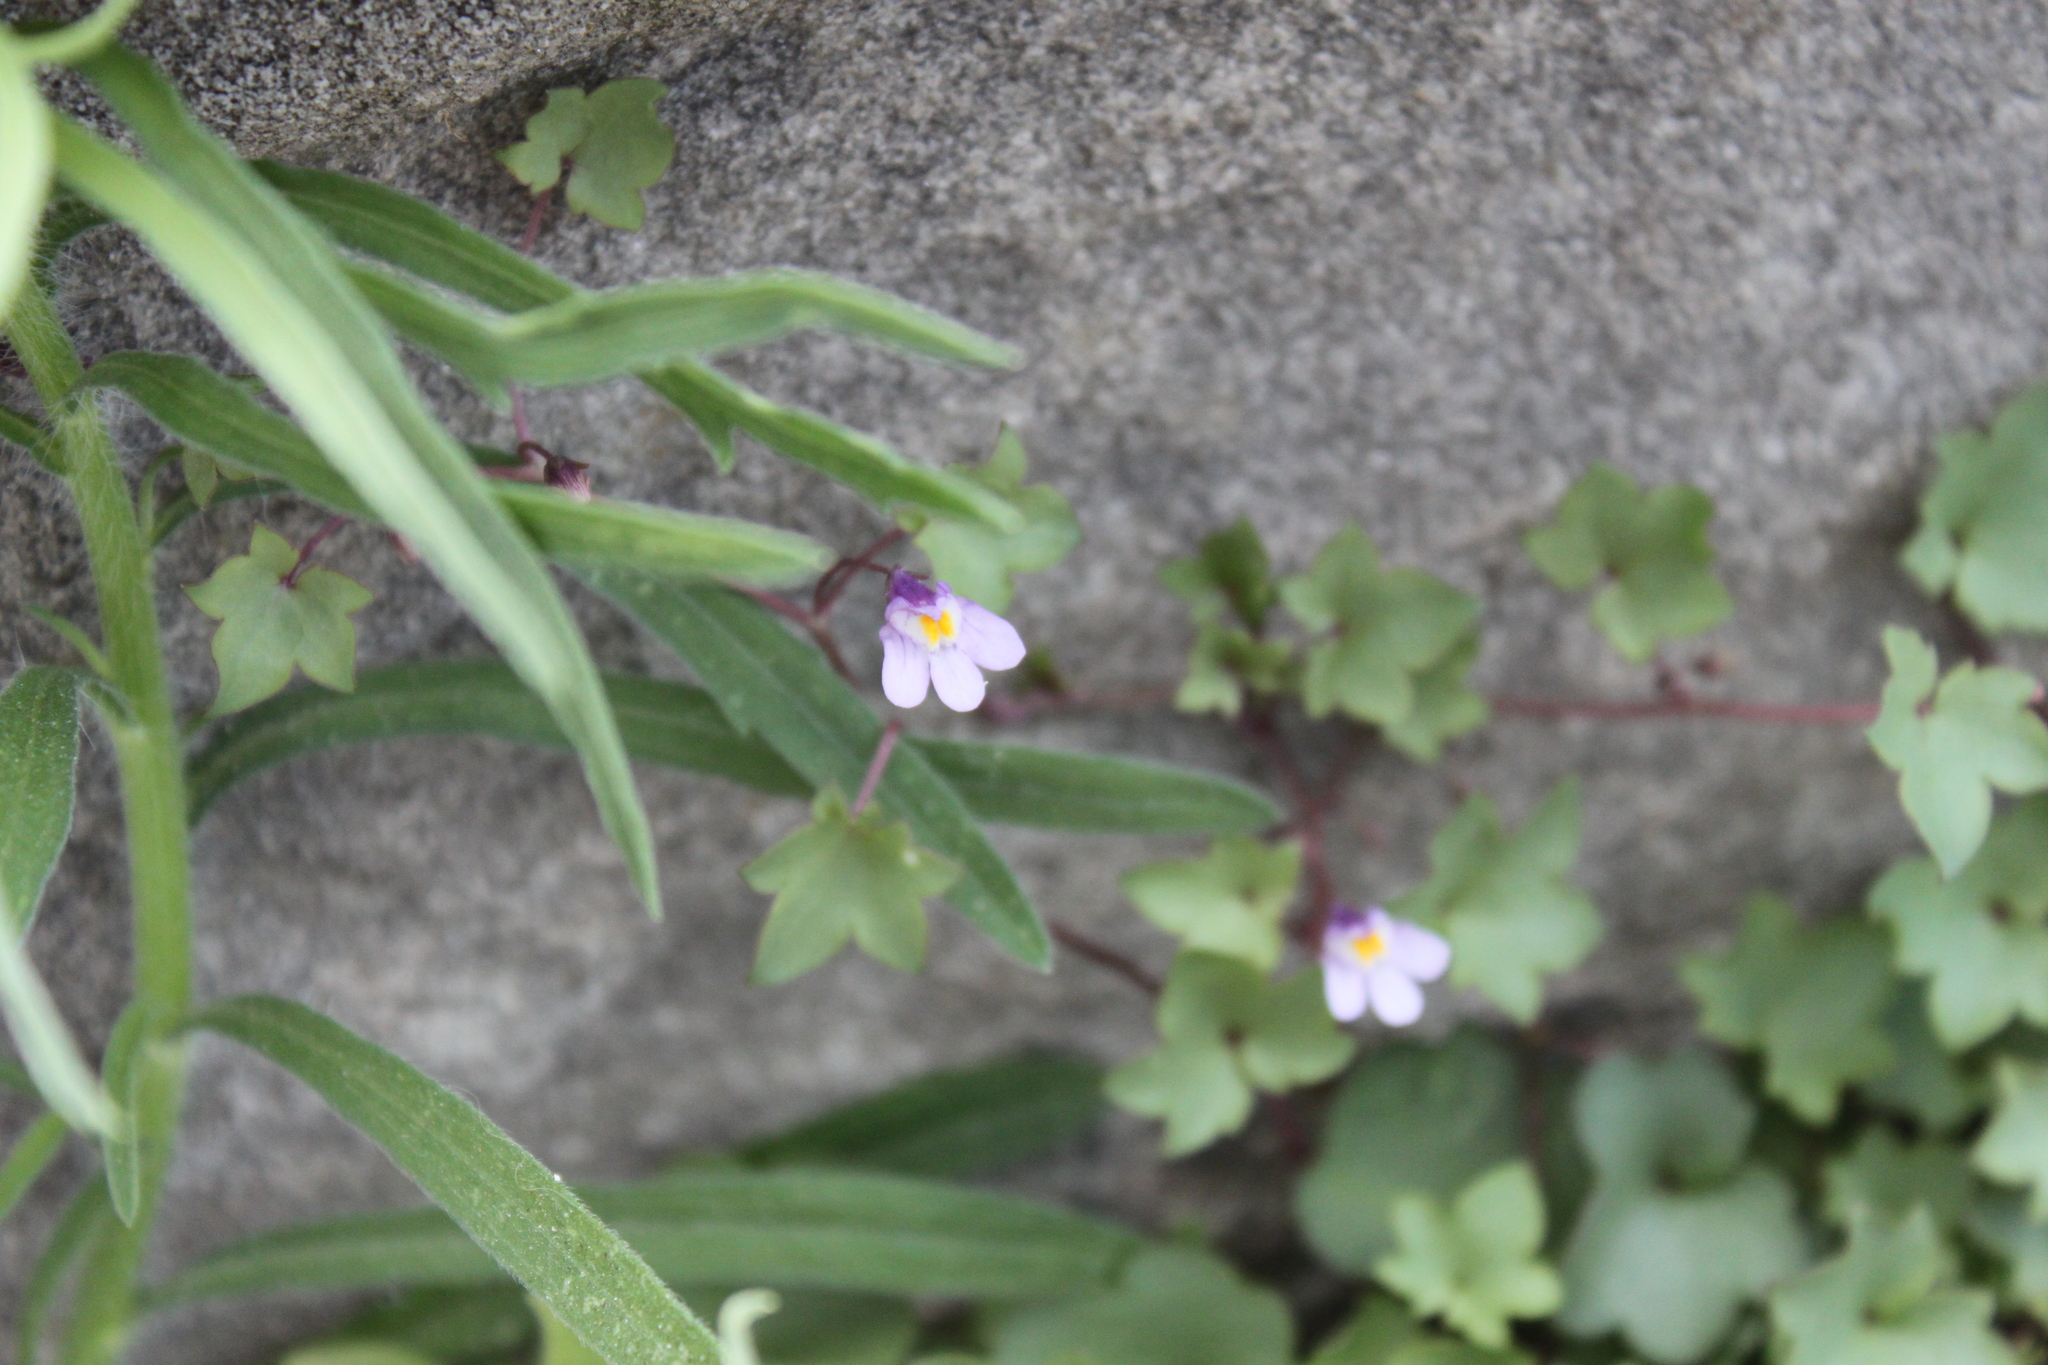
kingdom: Plantae
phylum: Tracheophyta
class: Magnoliopsida
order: Lamiales
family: Plantaginaceae
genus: Cymbalaria
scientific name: Cymbalaria muralis
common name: Ivy-leaved toadflax
